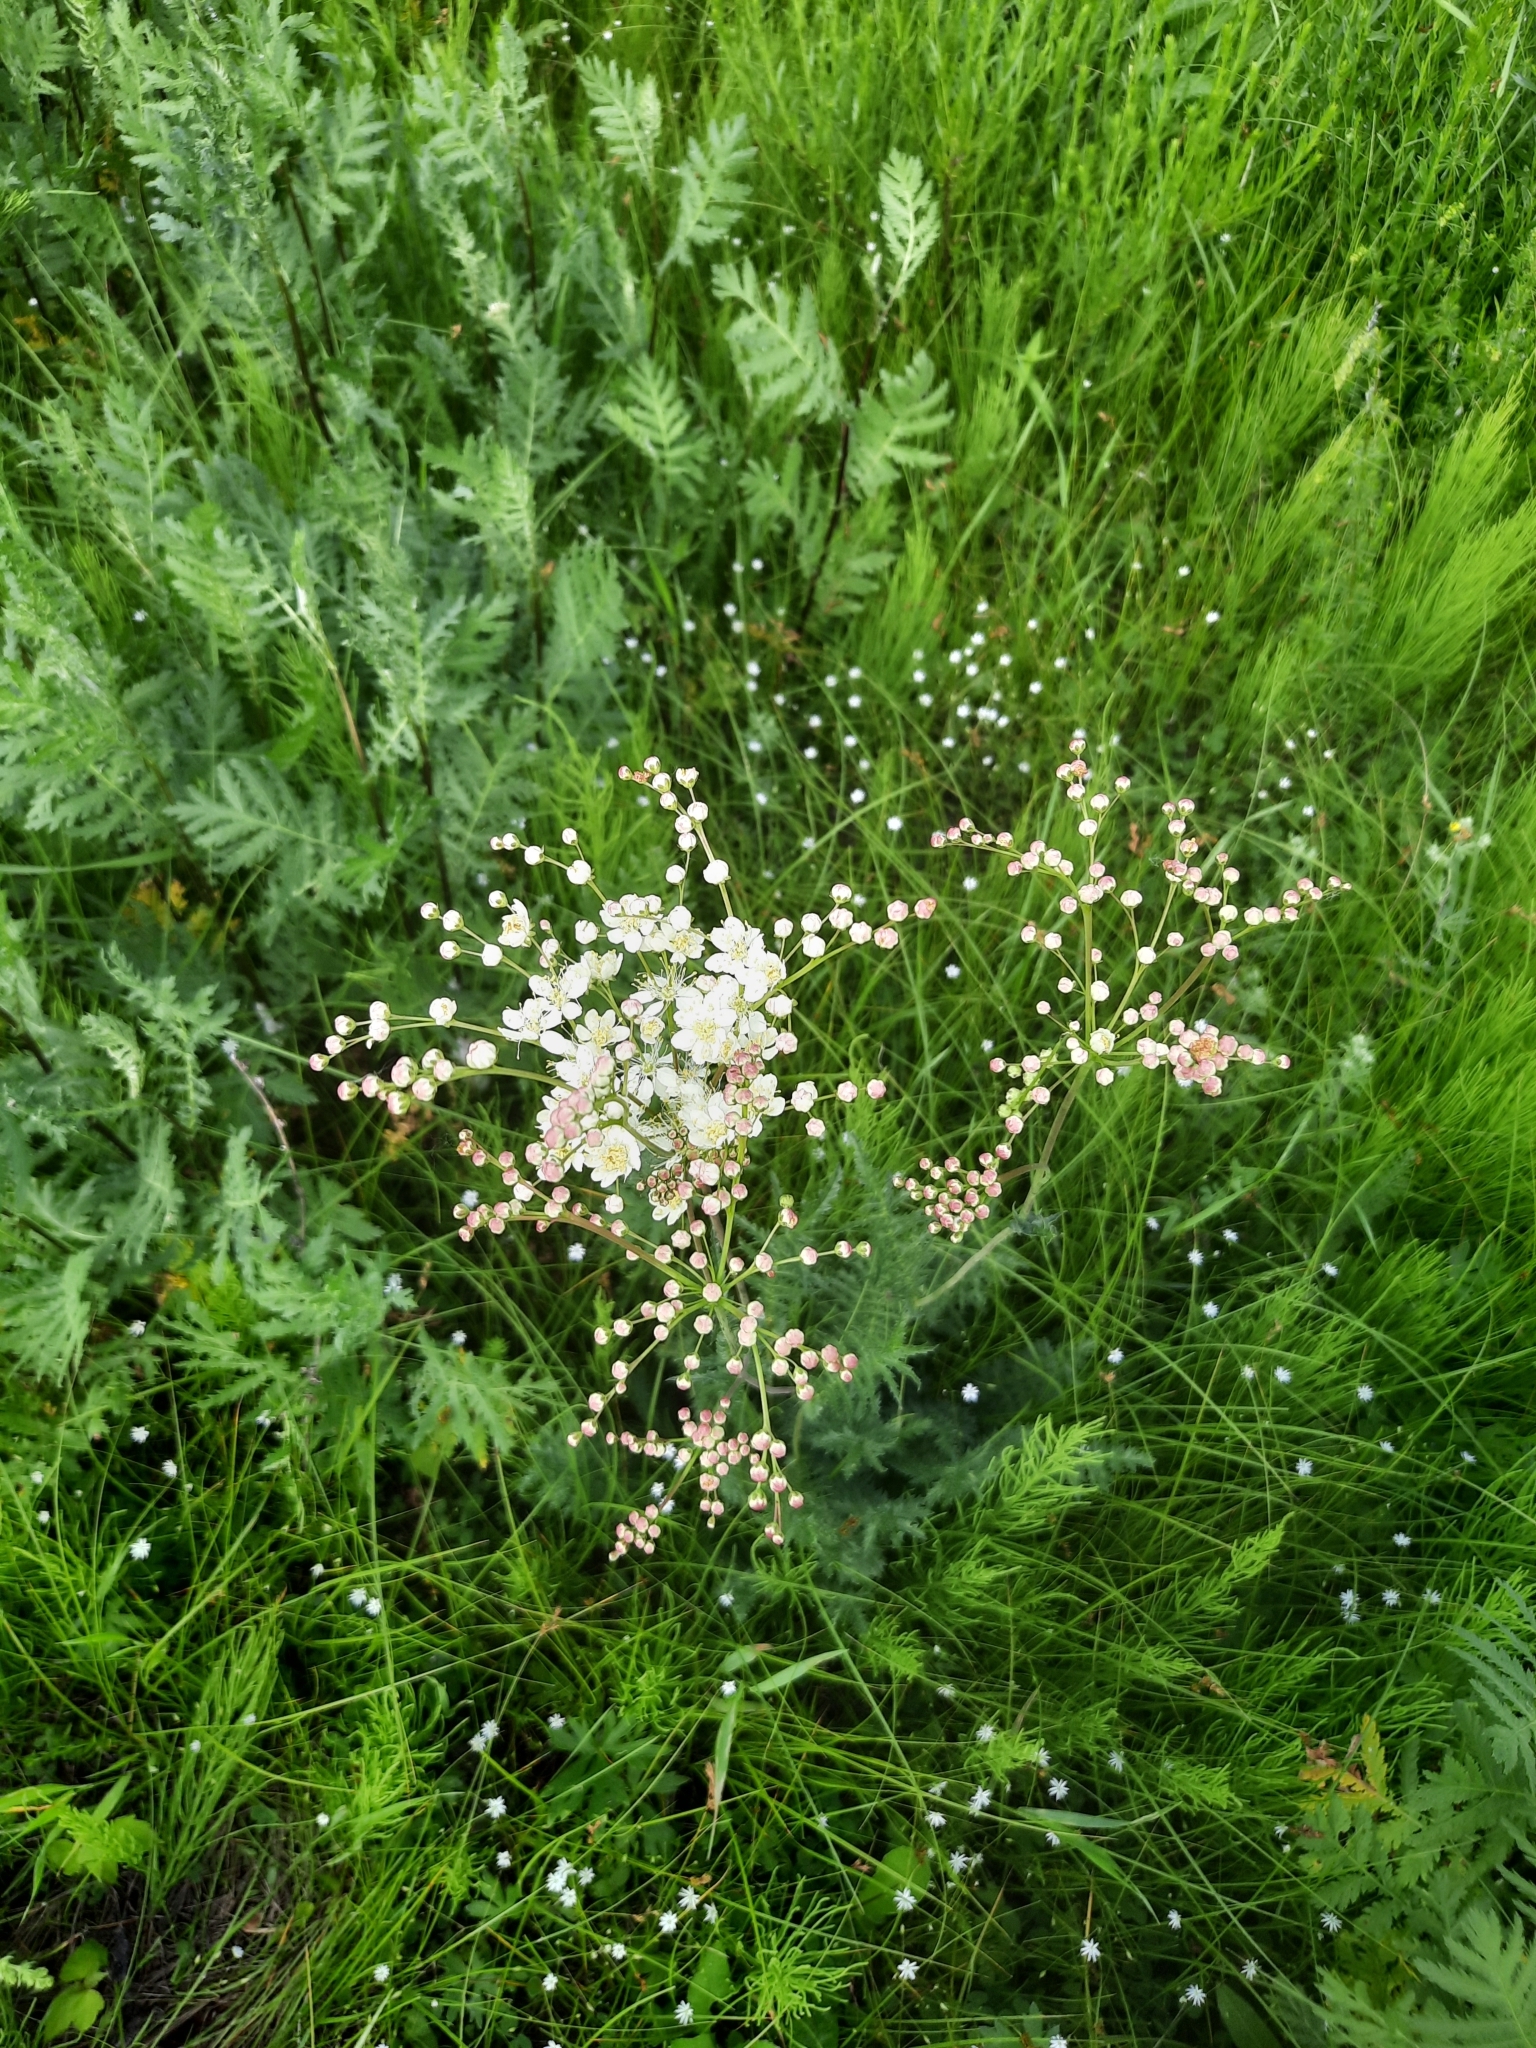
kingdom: Plantae
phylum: Tracheophyta
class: Magnoliopsida
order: Rosales
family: Rosaceae
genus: Filipendula
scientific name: Filipendula vulgaris
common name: Dropwort
